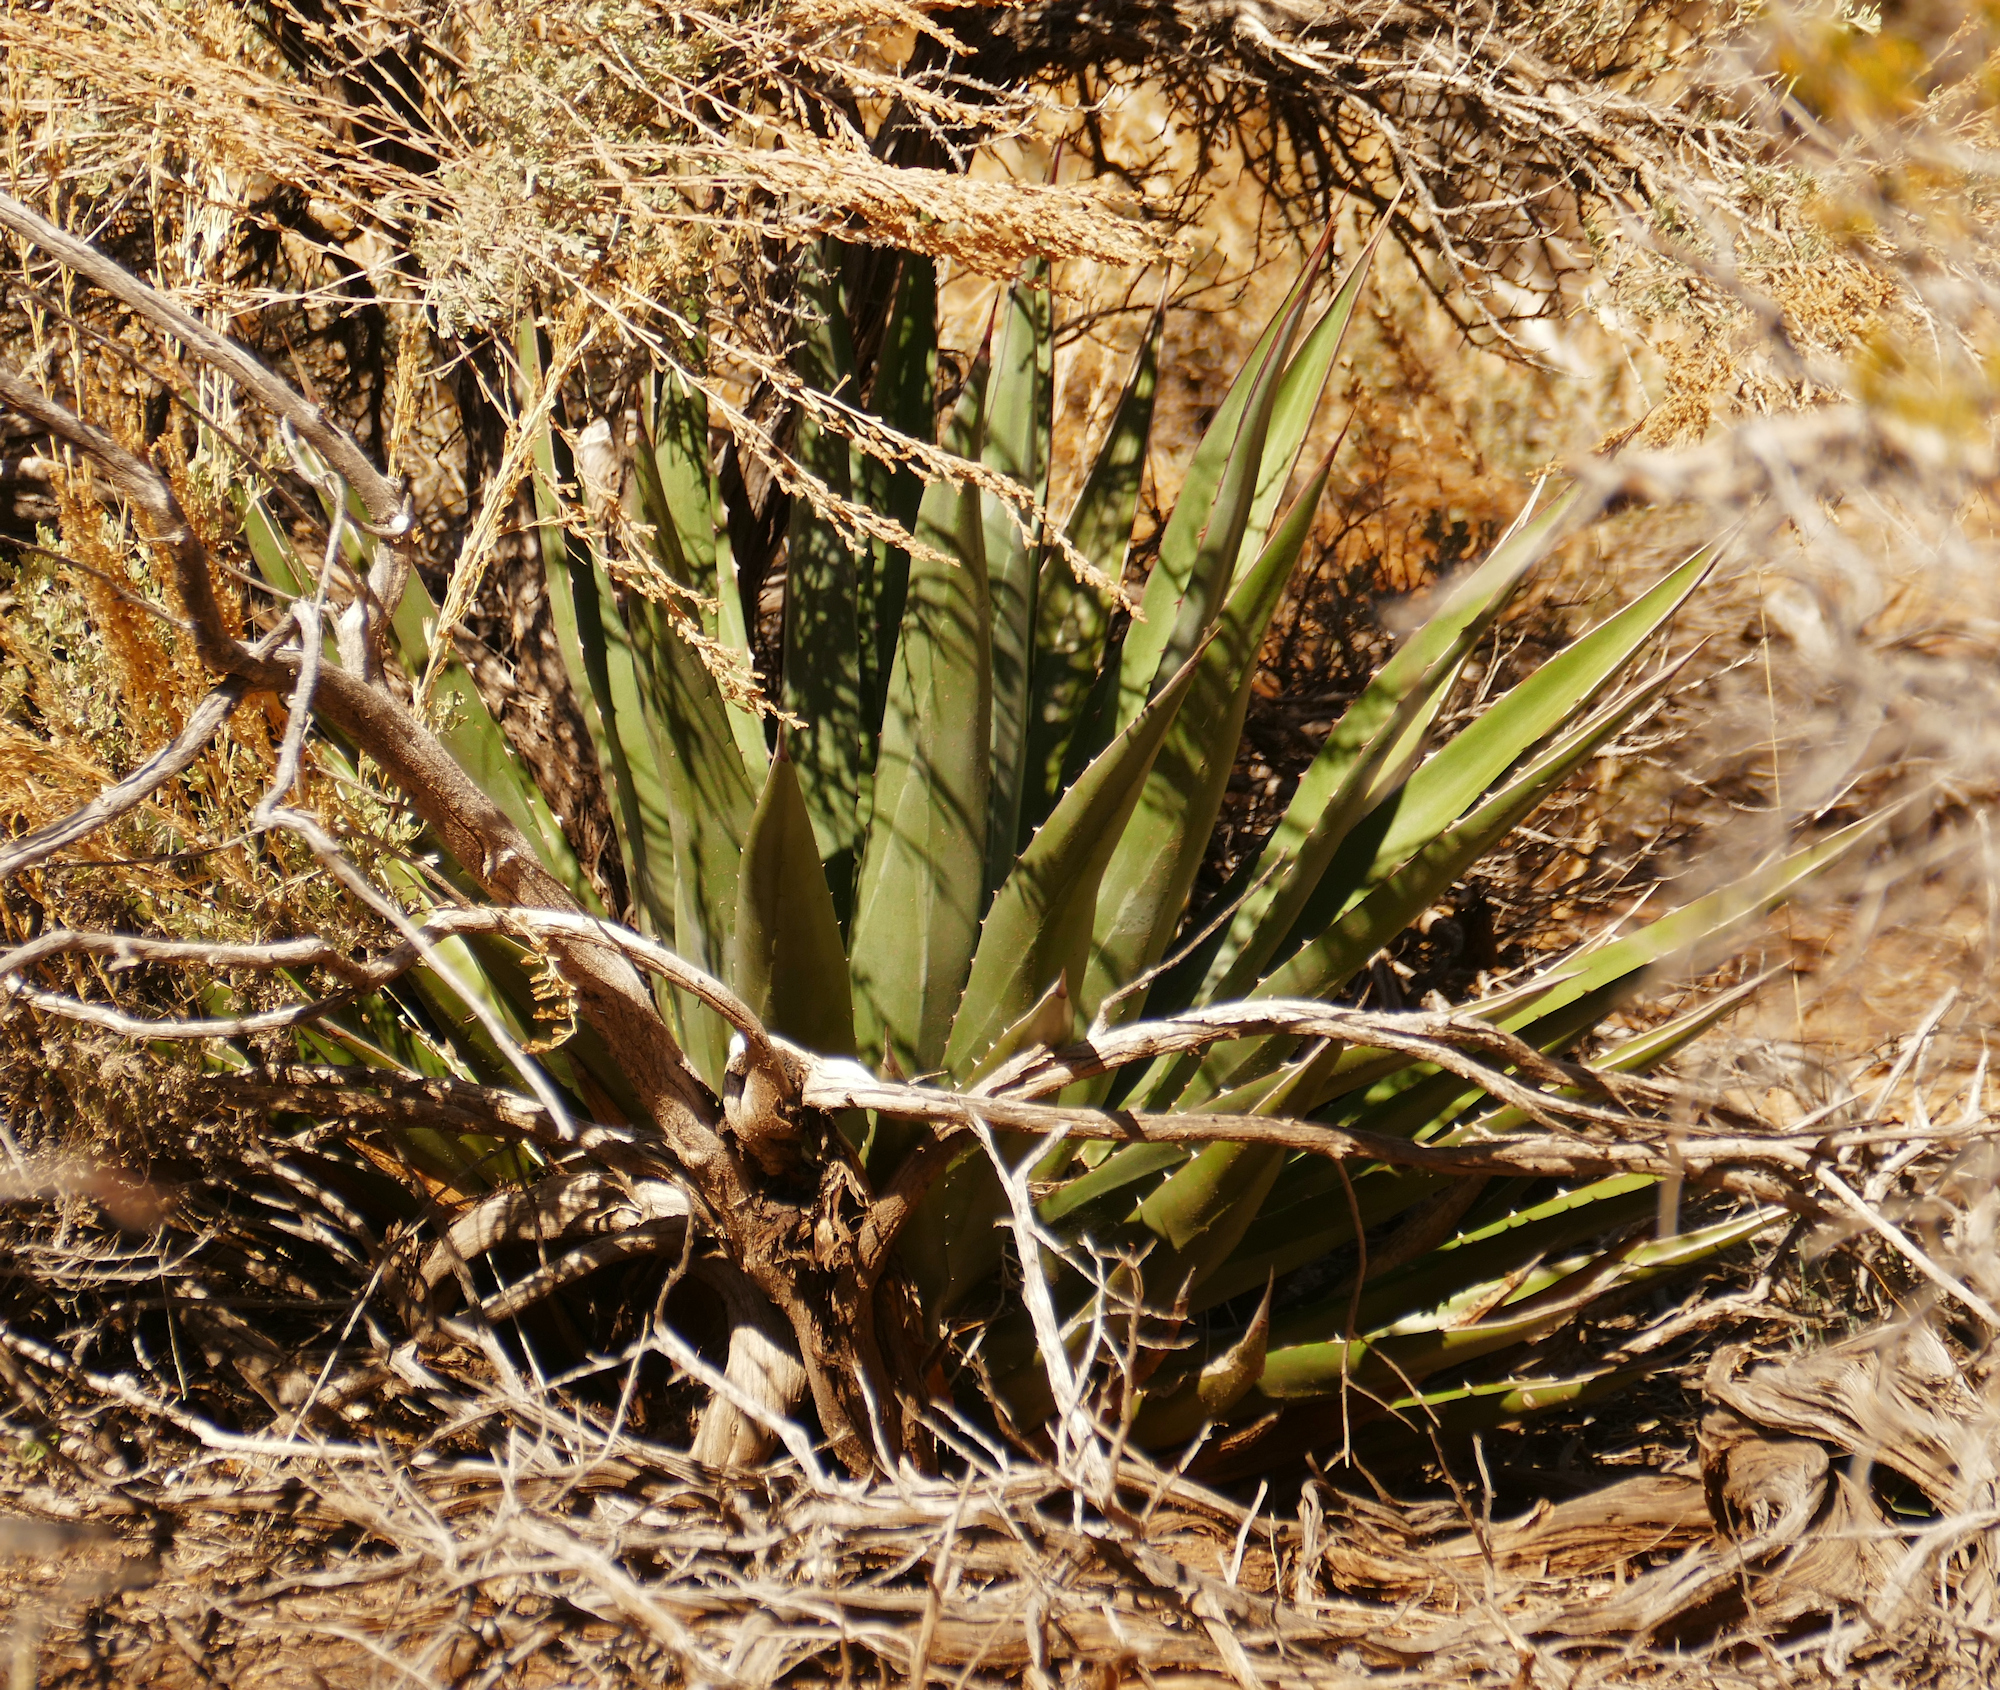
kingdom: Plantae
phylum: Tracheophyta
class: Liliopsida
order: Asparagales
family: Asparagaceae
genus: Agave
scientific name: Agave utahensis
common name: Utah agave
